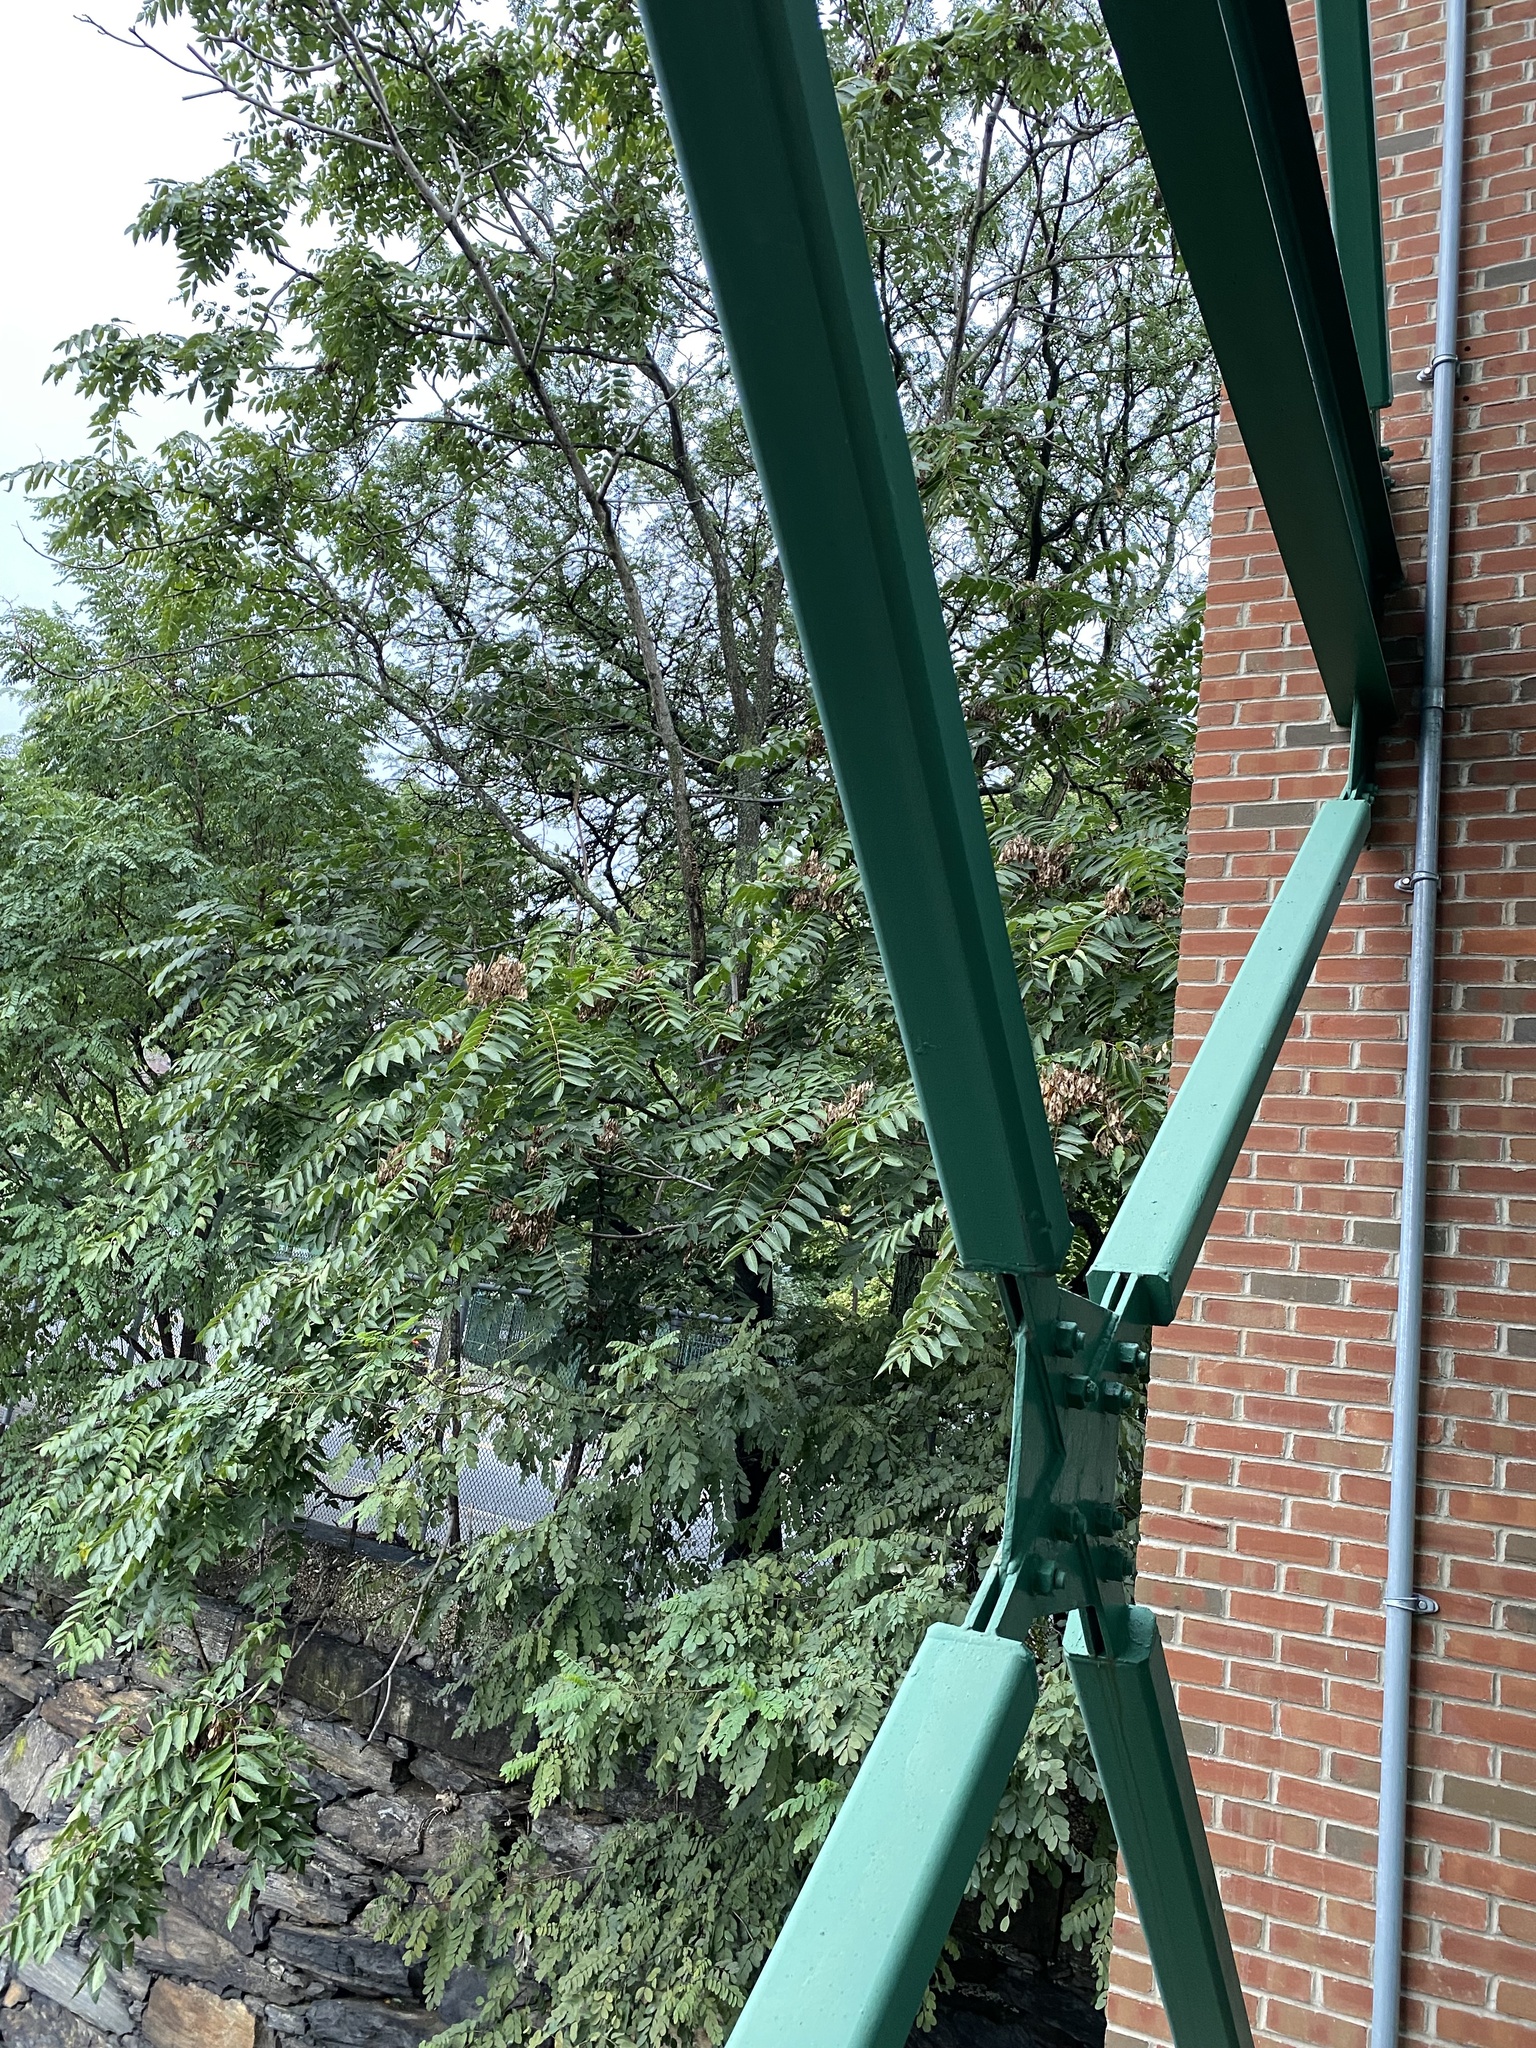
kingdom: Plantae
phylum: Tracheophyta
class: Magnoliopsida
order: Sapindales
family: Simaroubaceae
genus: Ailanthus
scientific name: Ailanthus altissima
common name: Tree-of-heaven
